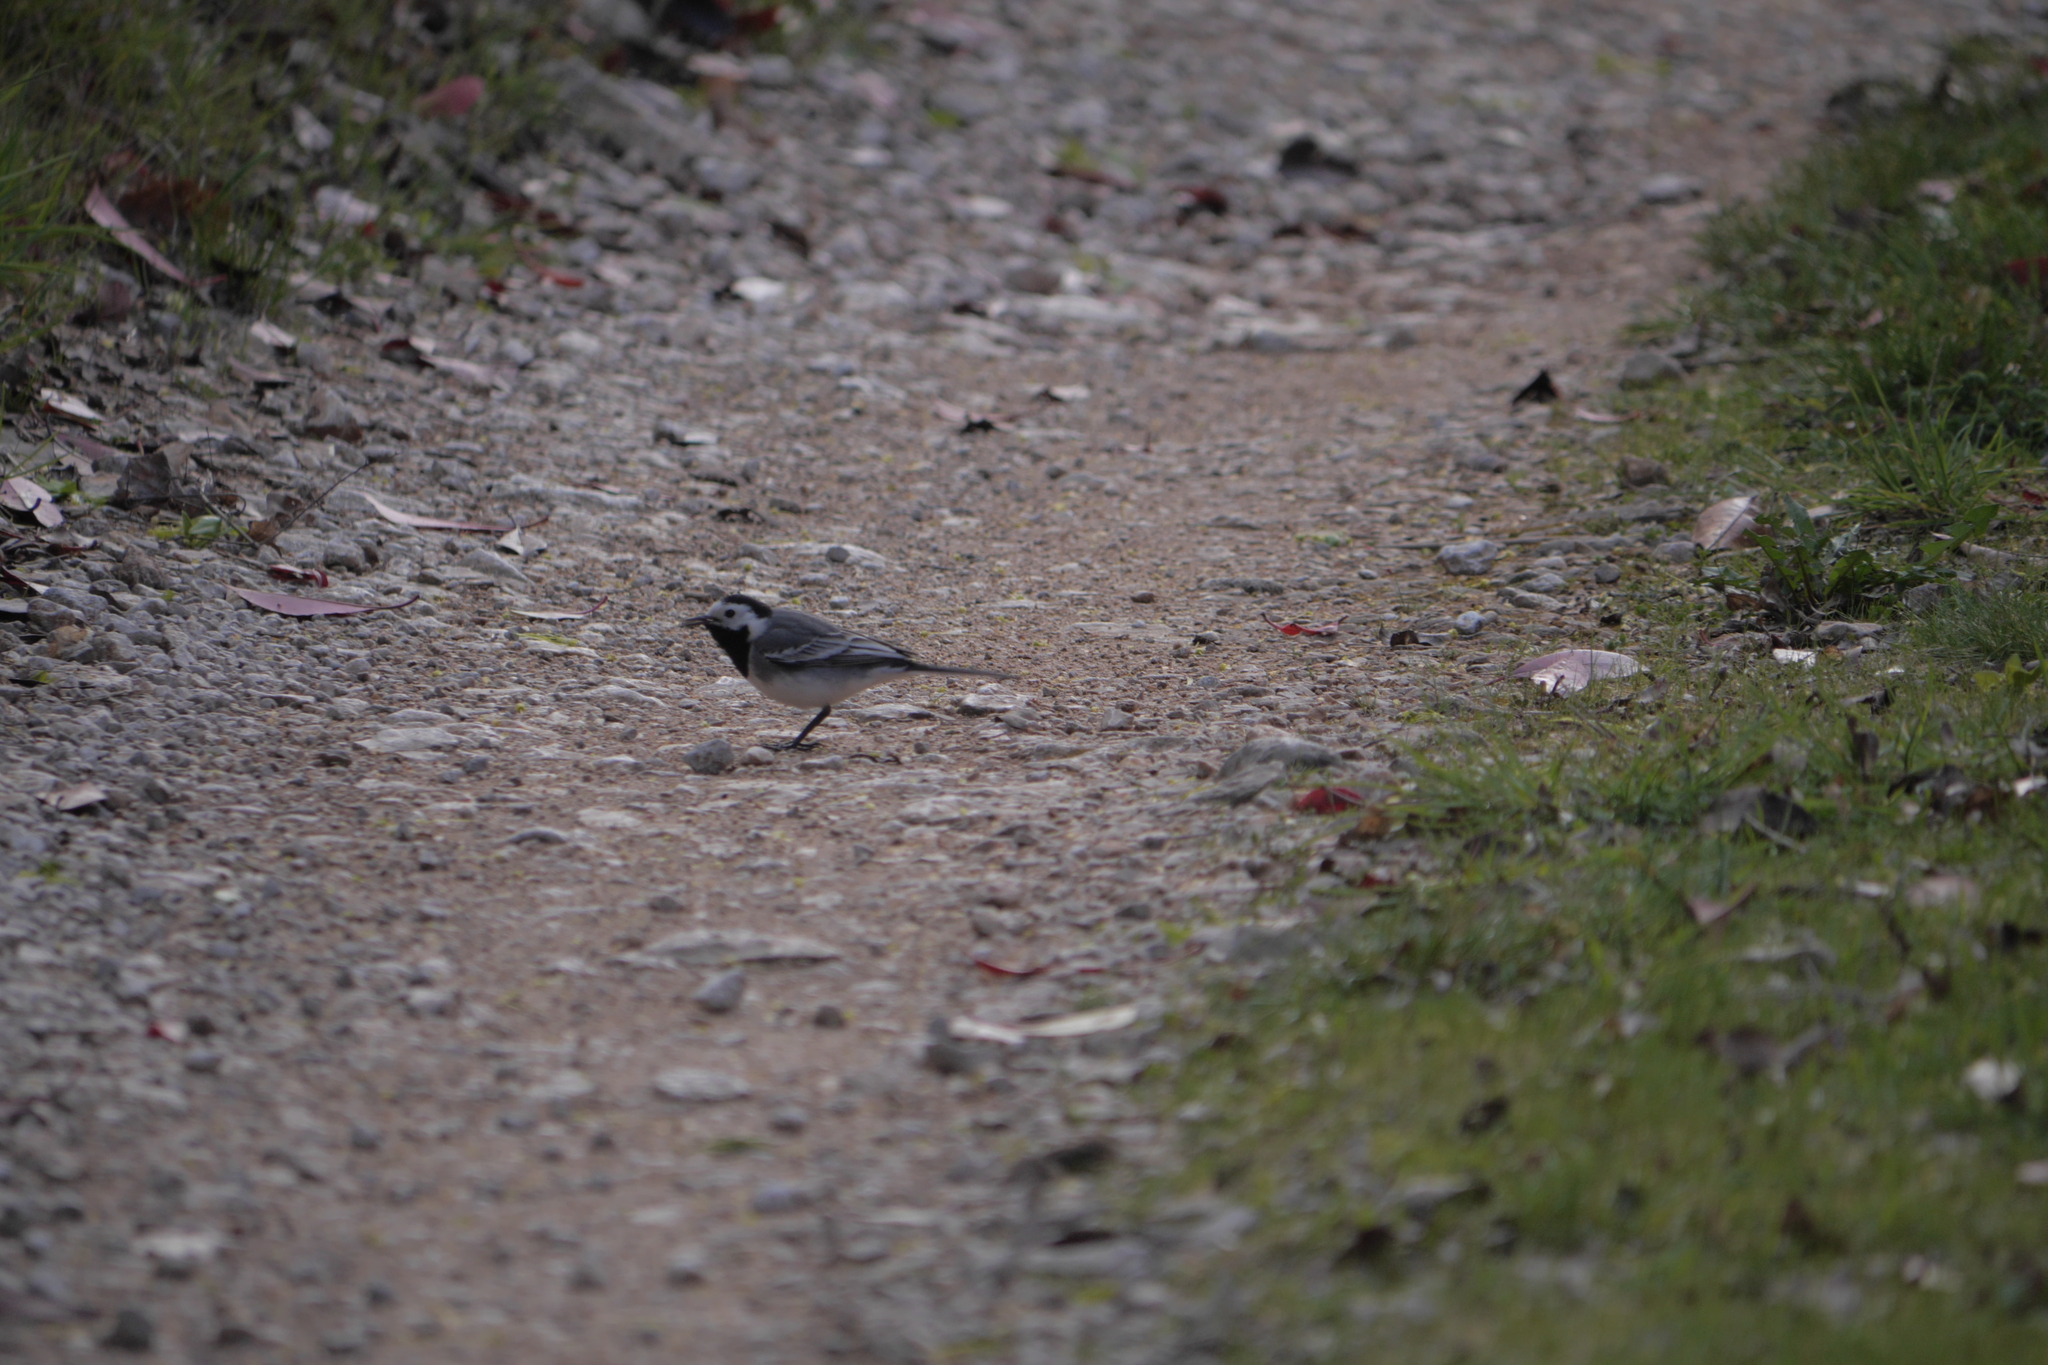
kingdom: Animalia
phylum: Chordata
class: Aves
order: Passeriformes
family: Motacillidae
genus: Motacilla
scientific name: Motacilla alba
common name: White wagtail
